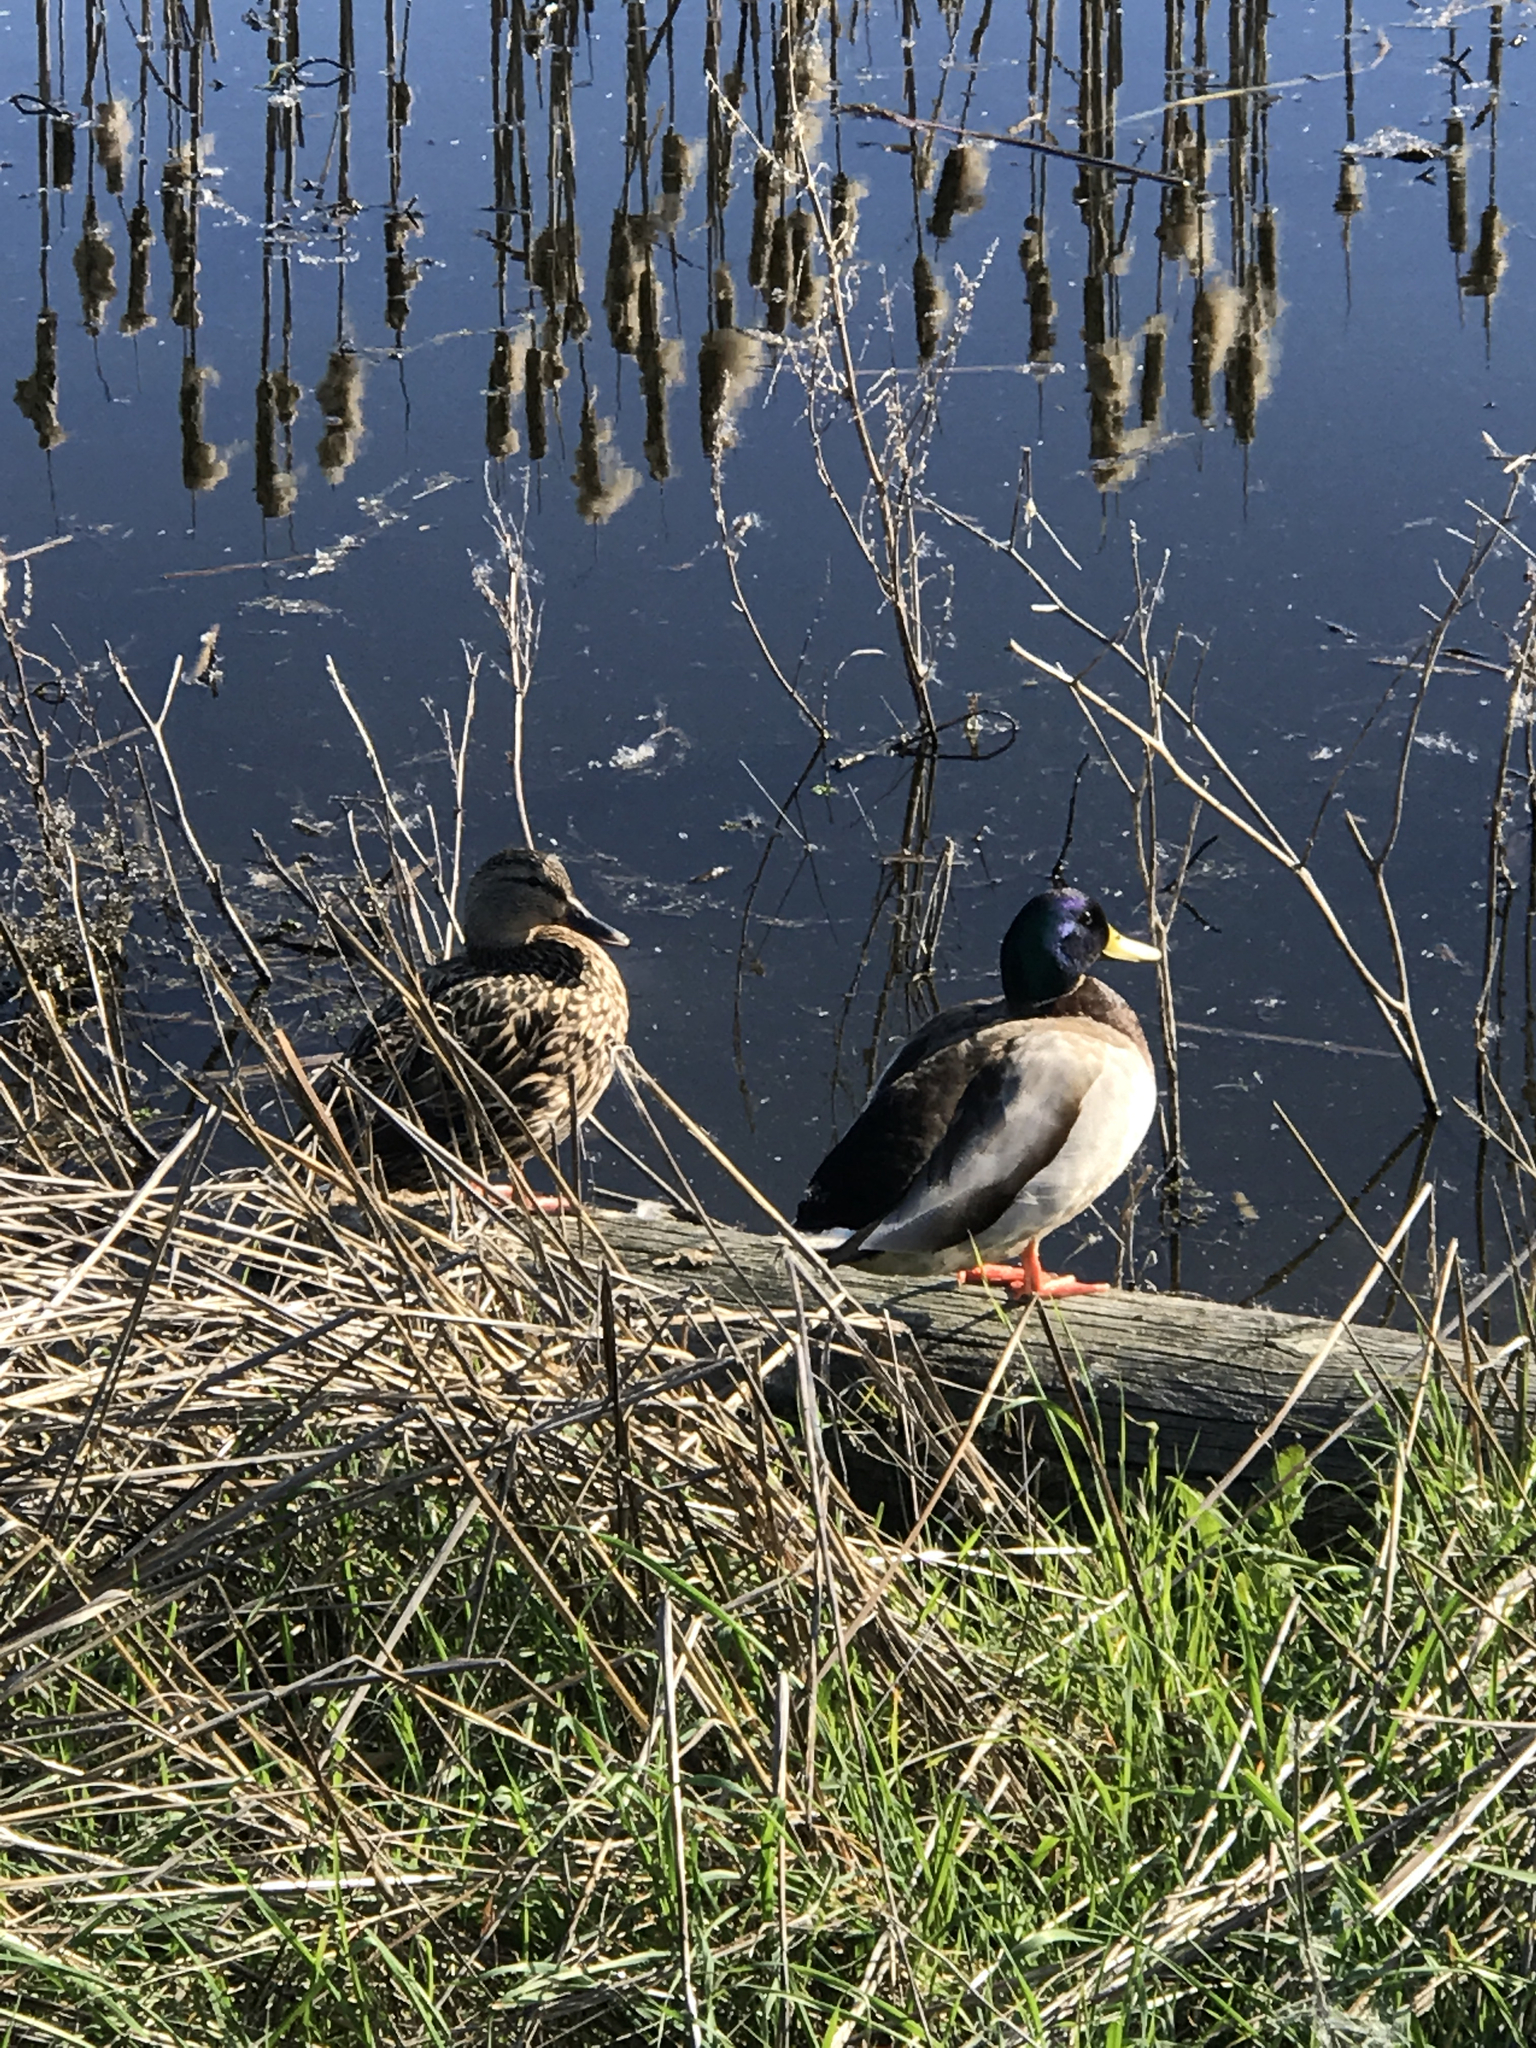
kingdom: Animalia
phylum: Chordata
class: Aves
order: Anseriformes
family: Anatidae
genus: Anas
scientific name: Anas platyrhynchos
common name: Mallard
